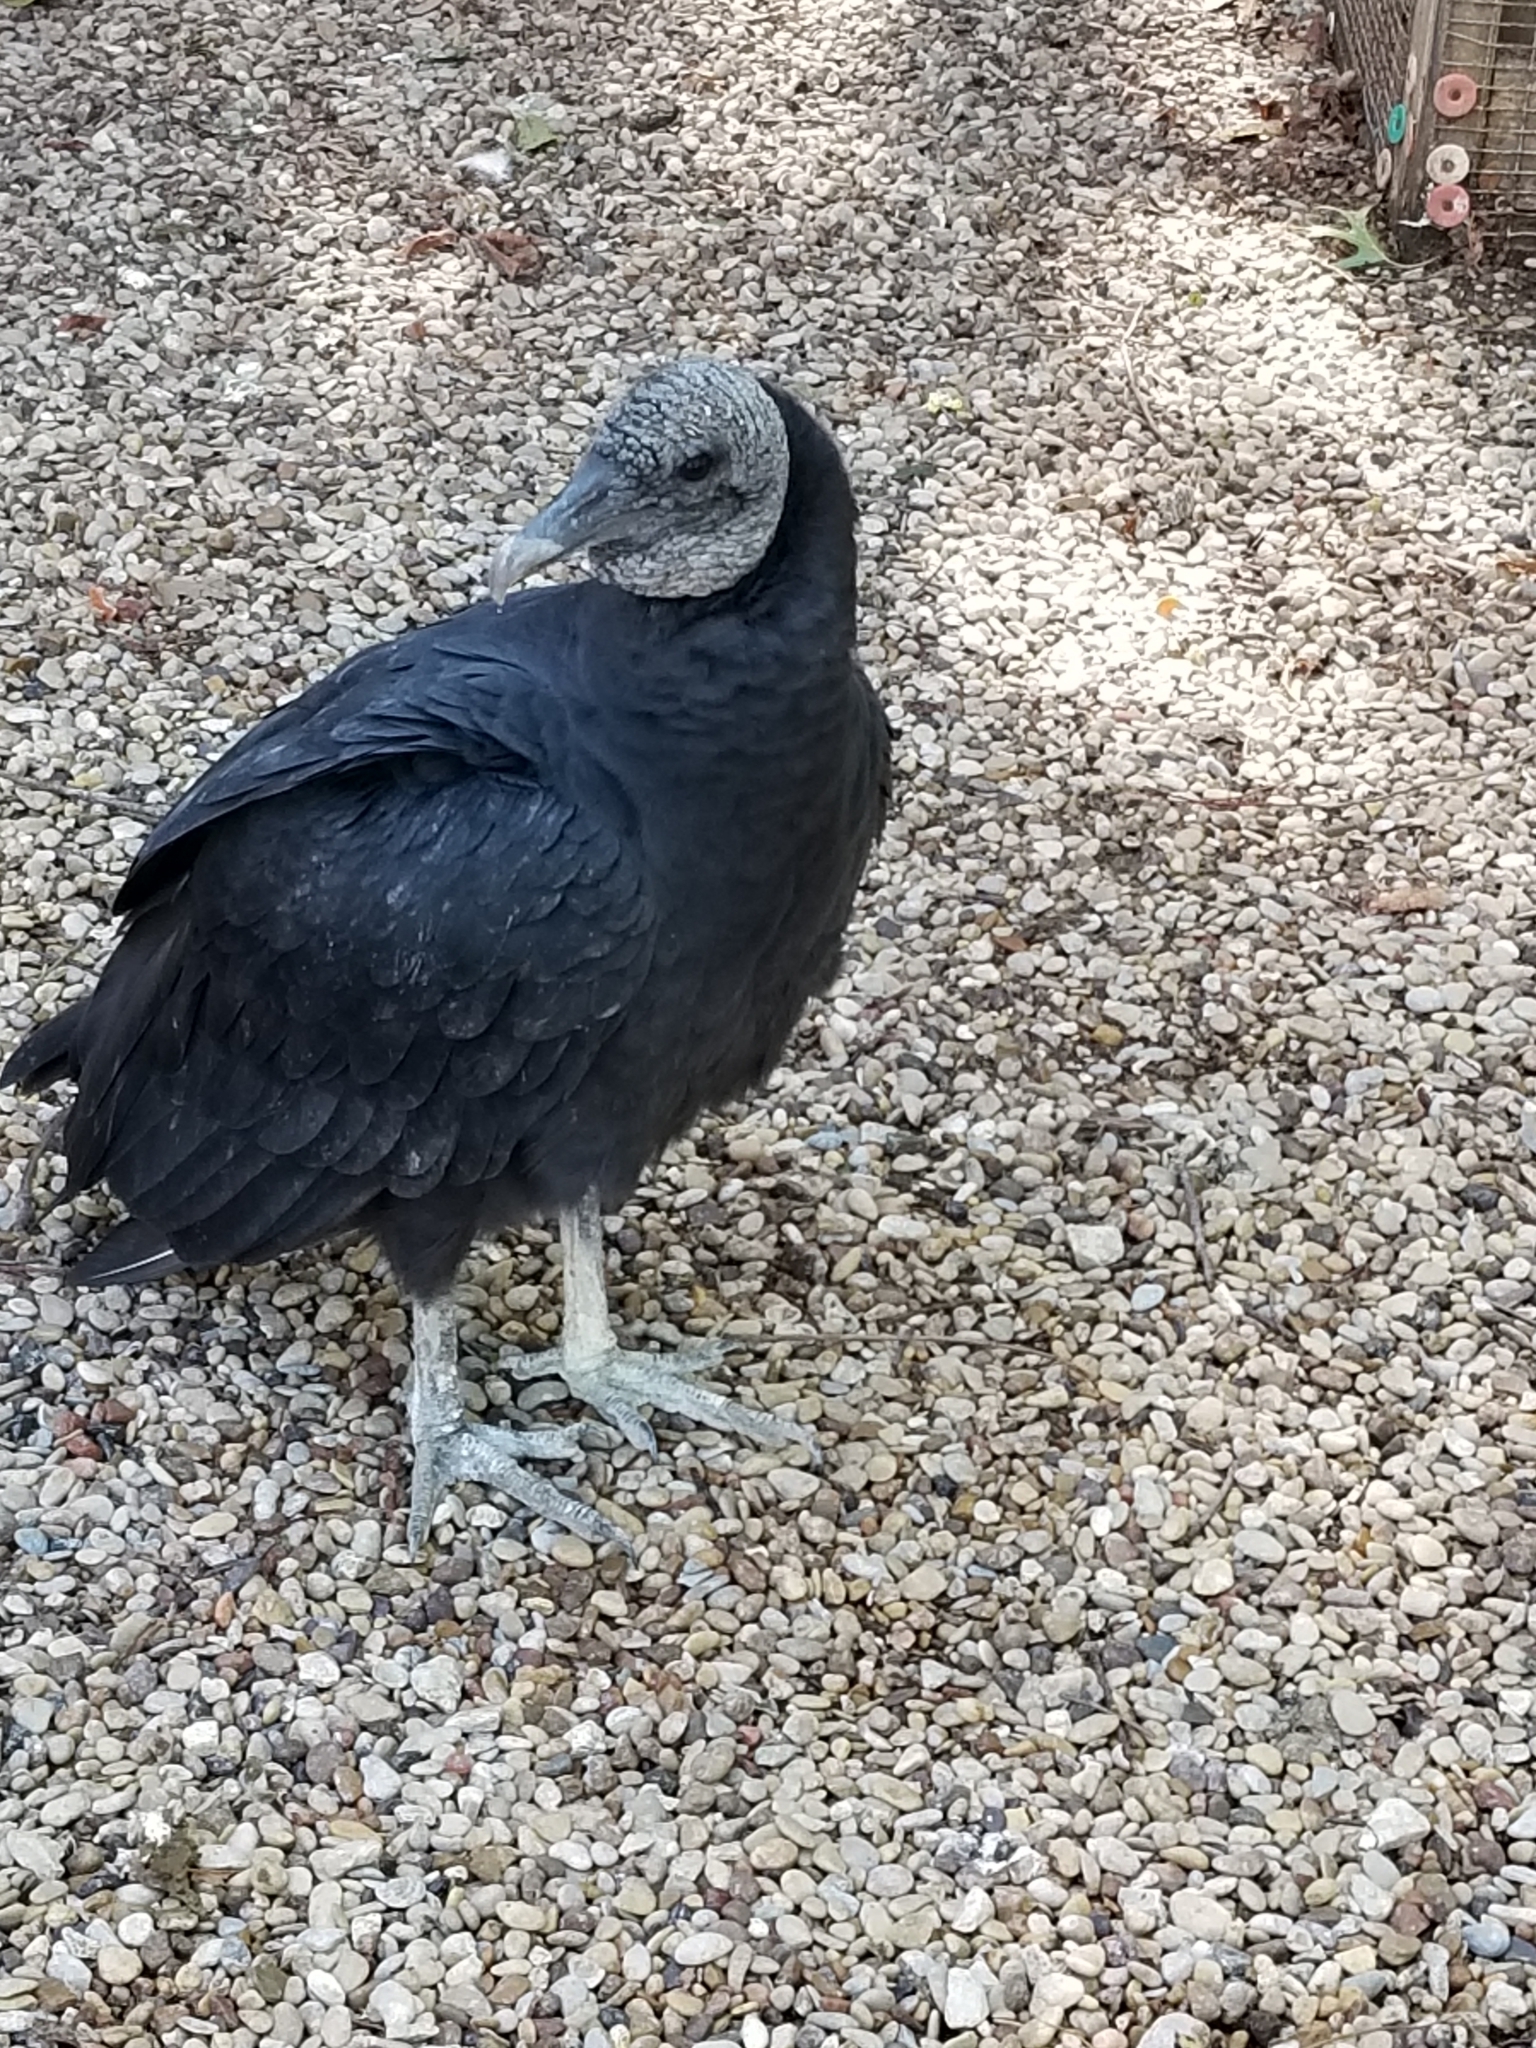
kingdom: Animalia
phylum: Chordata
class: Aves
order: Accipitriformes
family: Cathartidae
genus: Coragyps
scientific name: Coragyps atratus
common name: Black vulture
